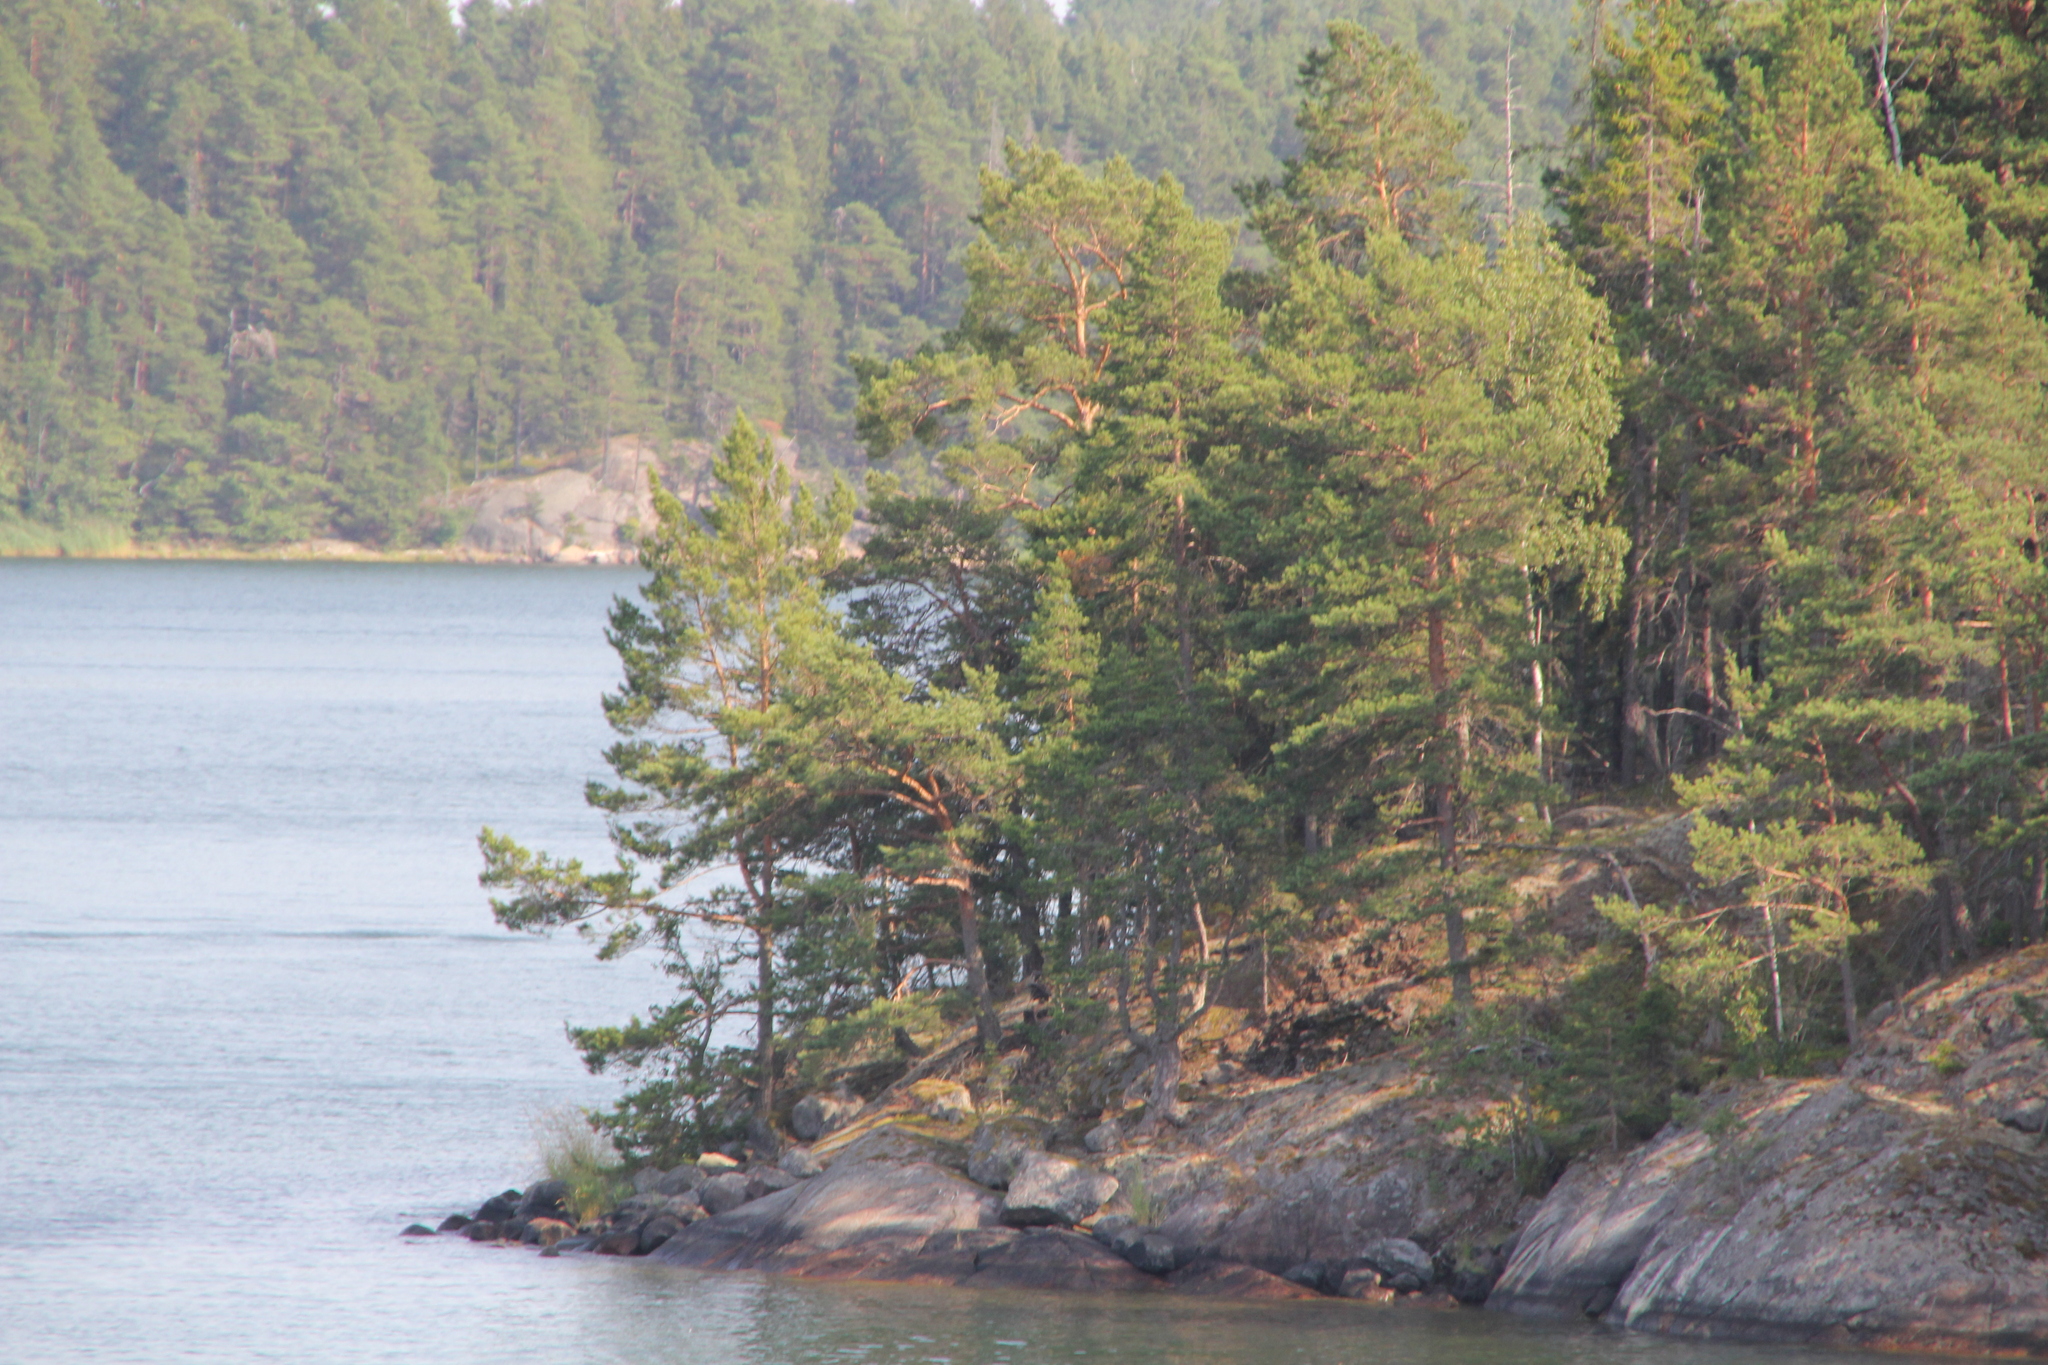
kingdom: Plantae
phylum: Tracheophyta
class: Pinopsida
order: Pinales
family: Pinaceae
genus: Pinus
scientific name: Pinus sylvestris
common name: Scots pine
